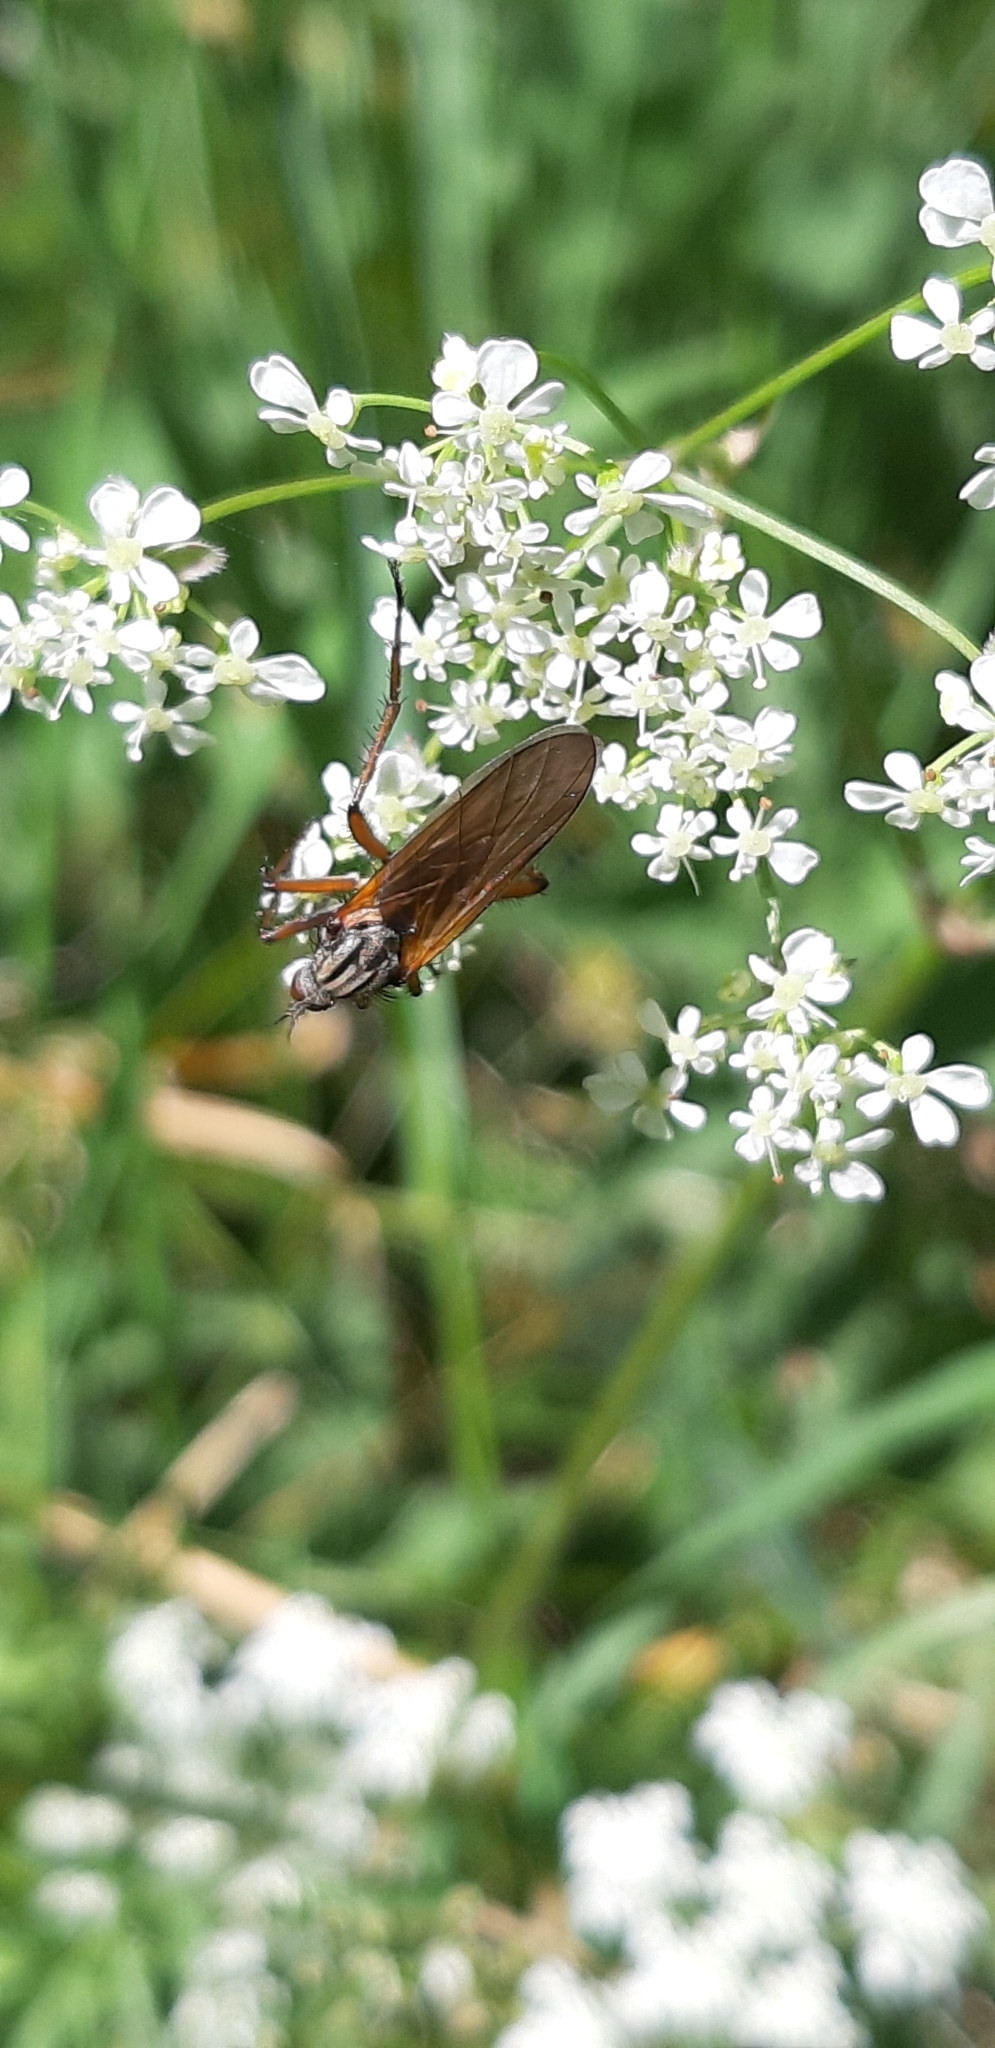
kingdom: Animalia
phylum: Arthropoda
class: Insecta
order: Diptera
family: Empididae
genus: Empis
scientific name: Empis tessellata
